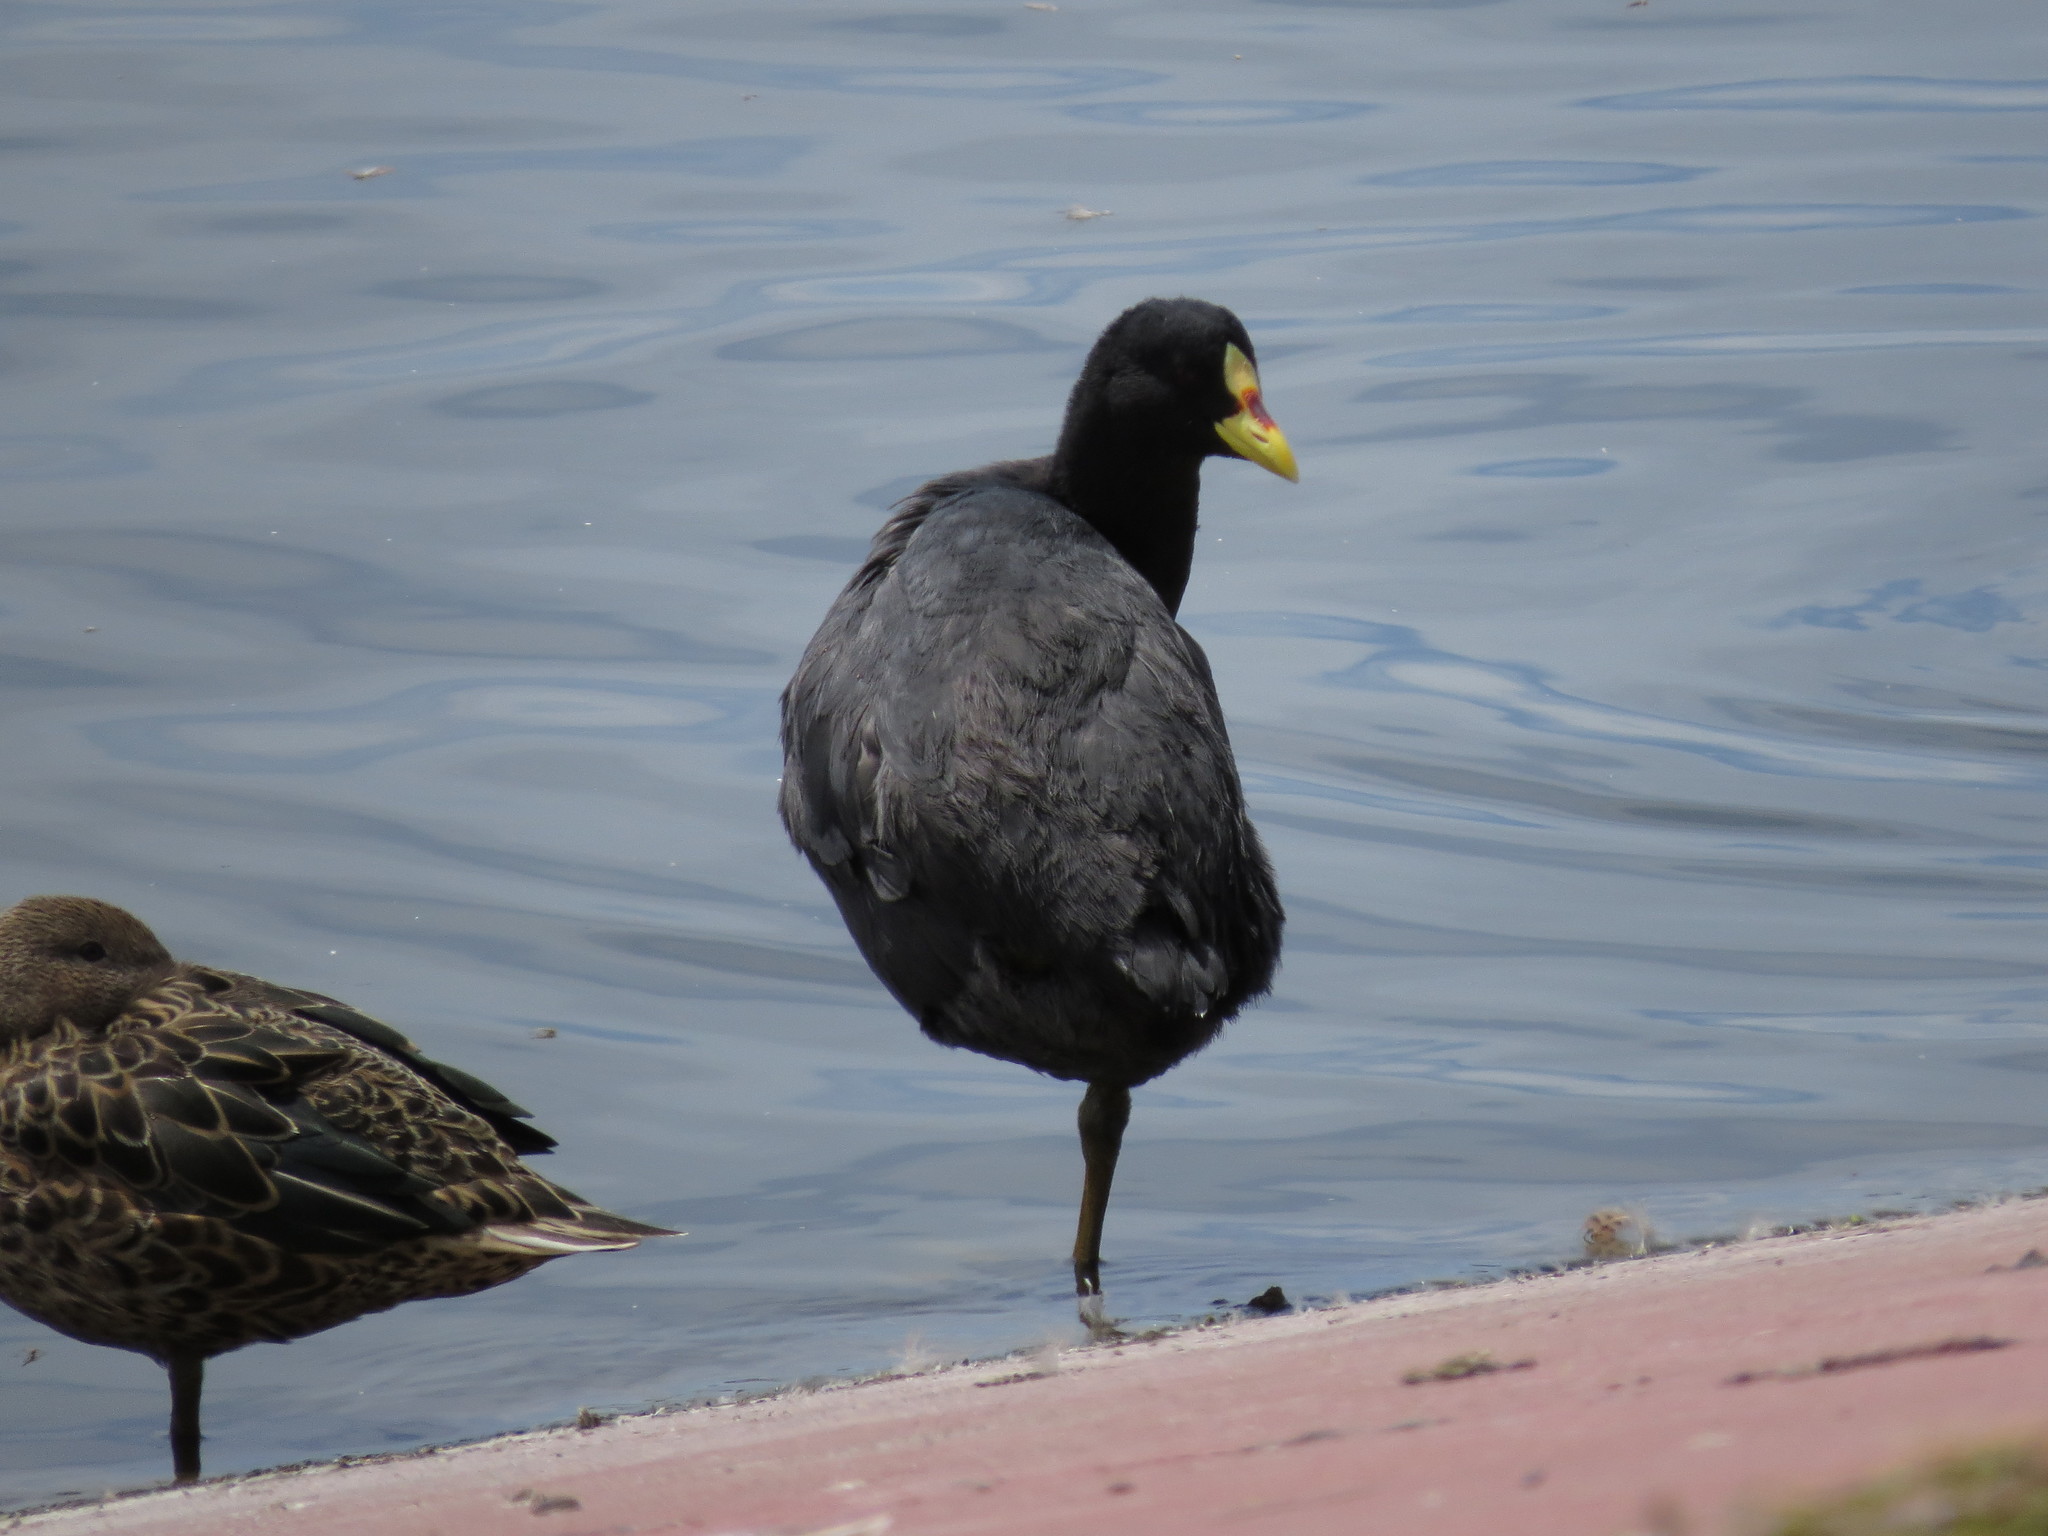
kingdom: Animalia
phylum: Chordata
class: Aves
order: Gruiformes
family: Rallidae
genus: Fulica
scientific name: Fulica armillata
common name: Red-gartered coot
